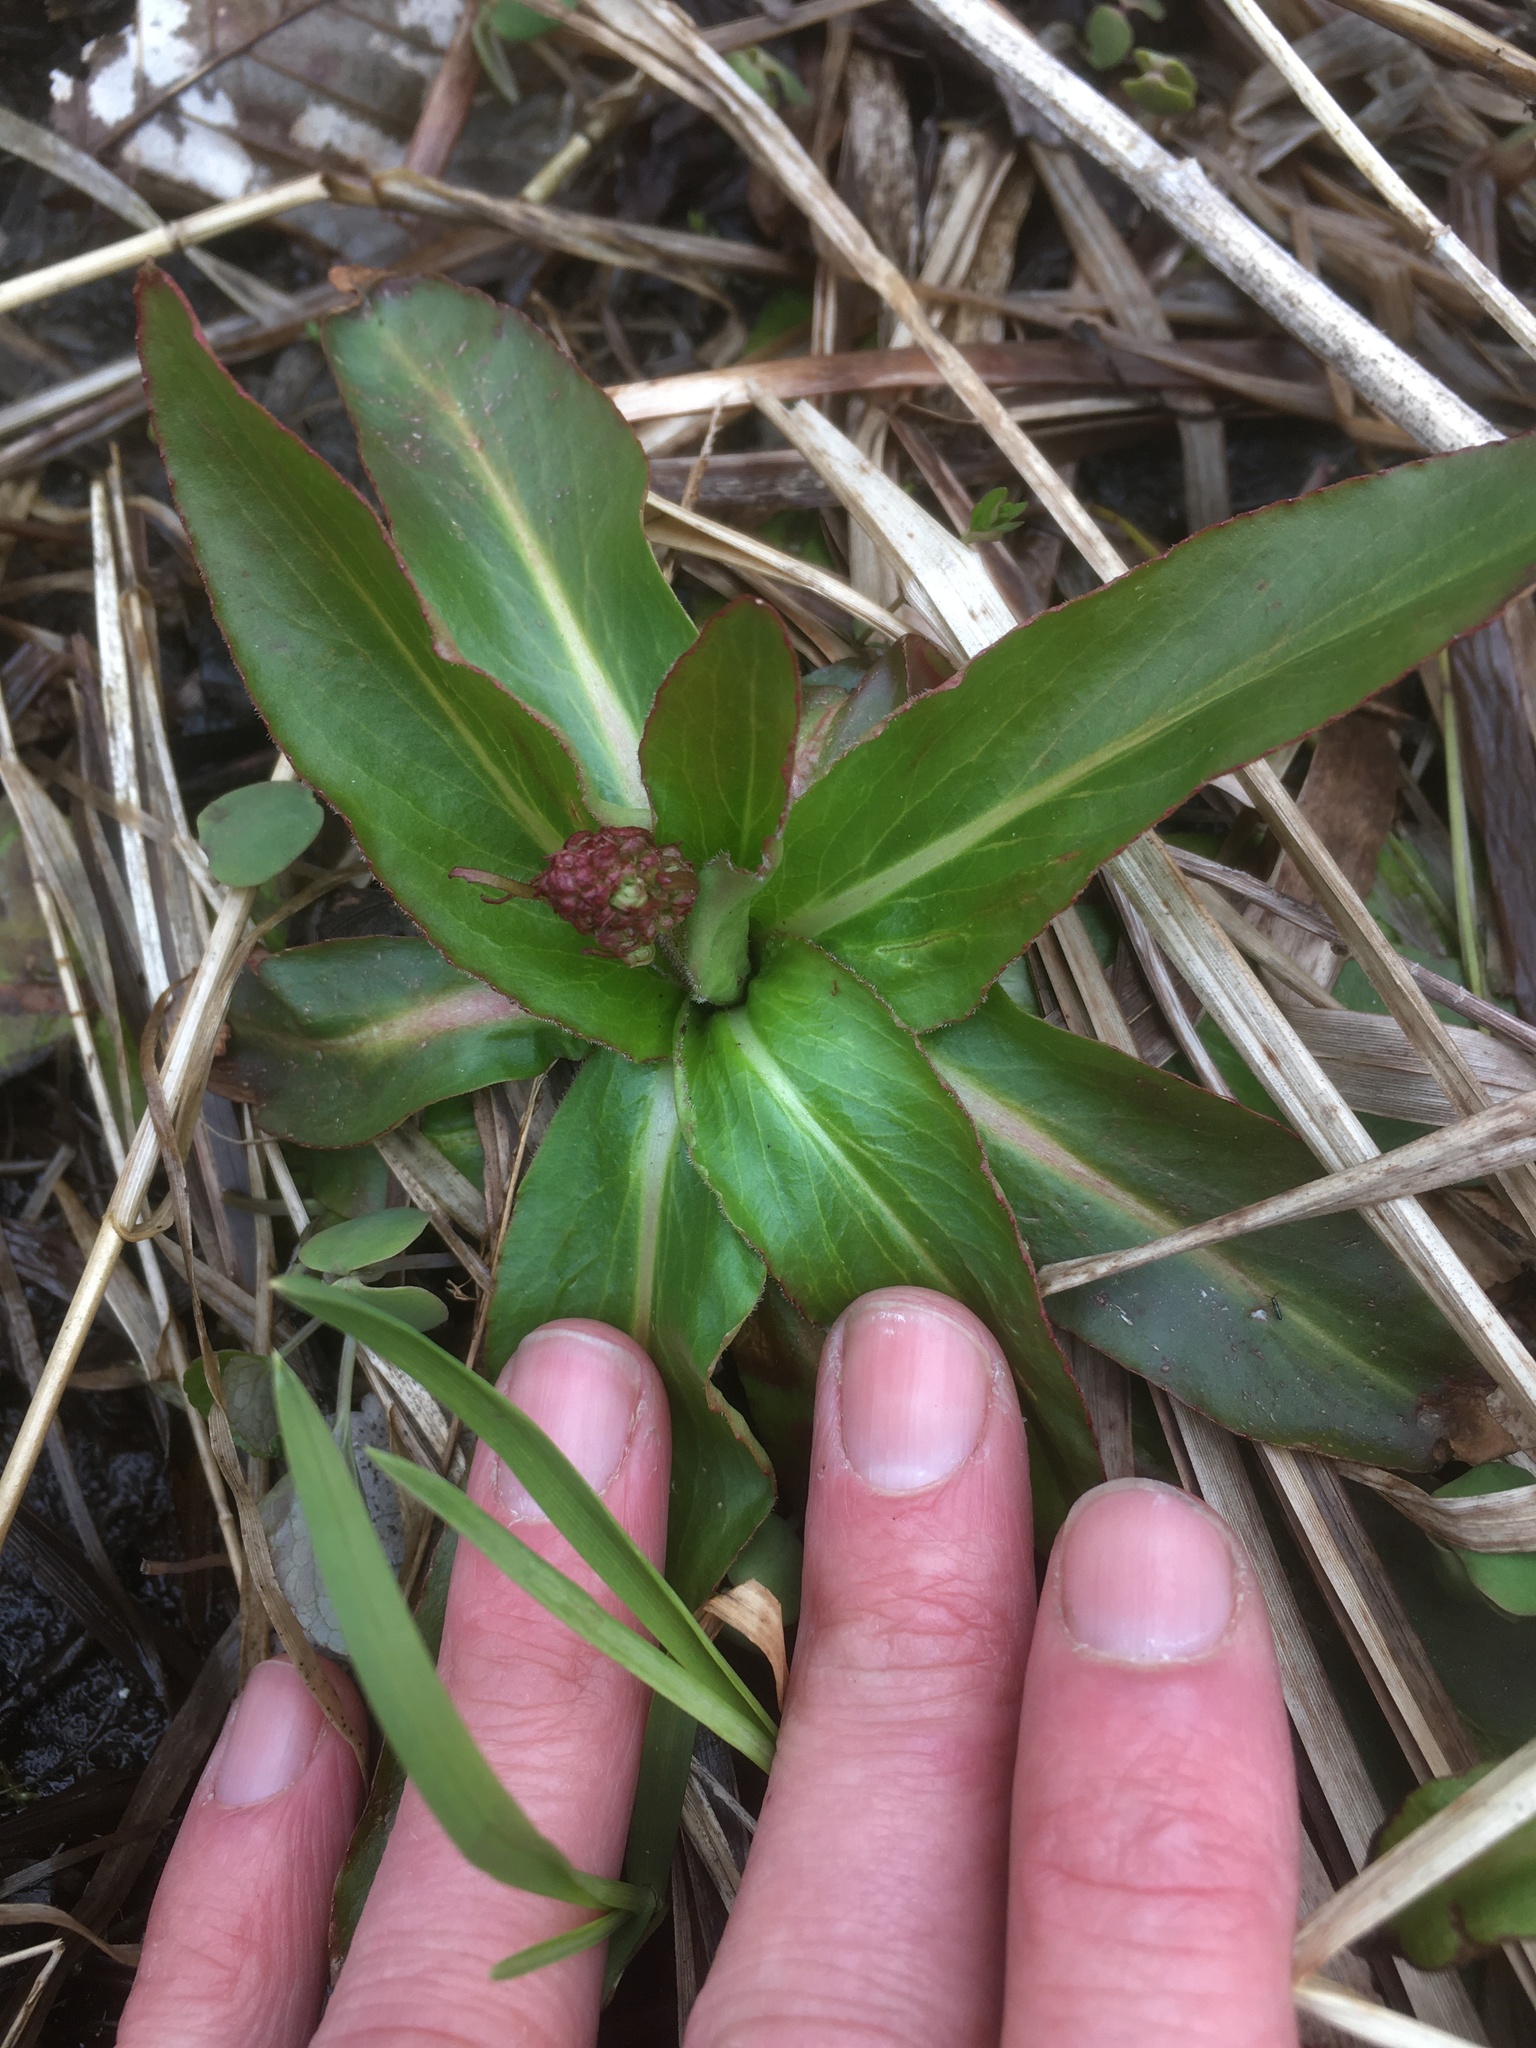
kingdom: Plantae
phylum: Tracheophyta
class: Magnoliopsida
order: Saxifragales
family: Saxifragaceae
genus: Micranthes
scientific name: Micranthes pensylvanica
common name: Marsh saxifrage
